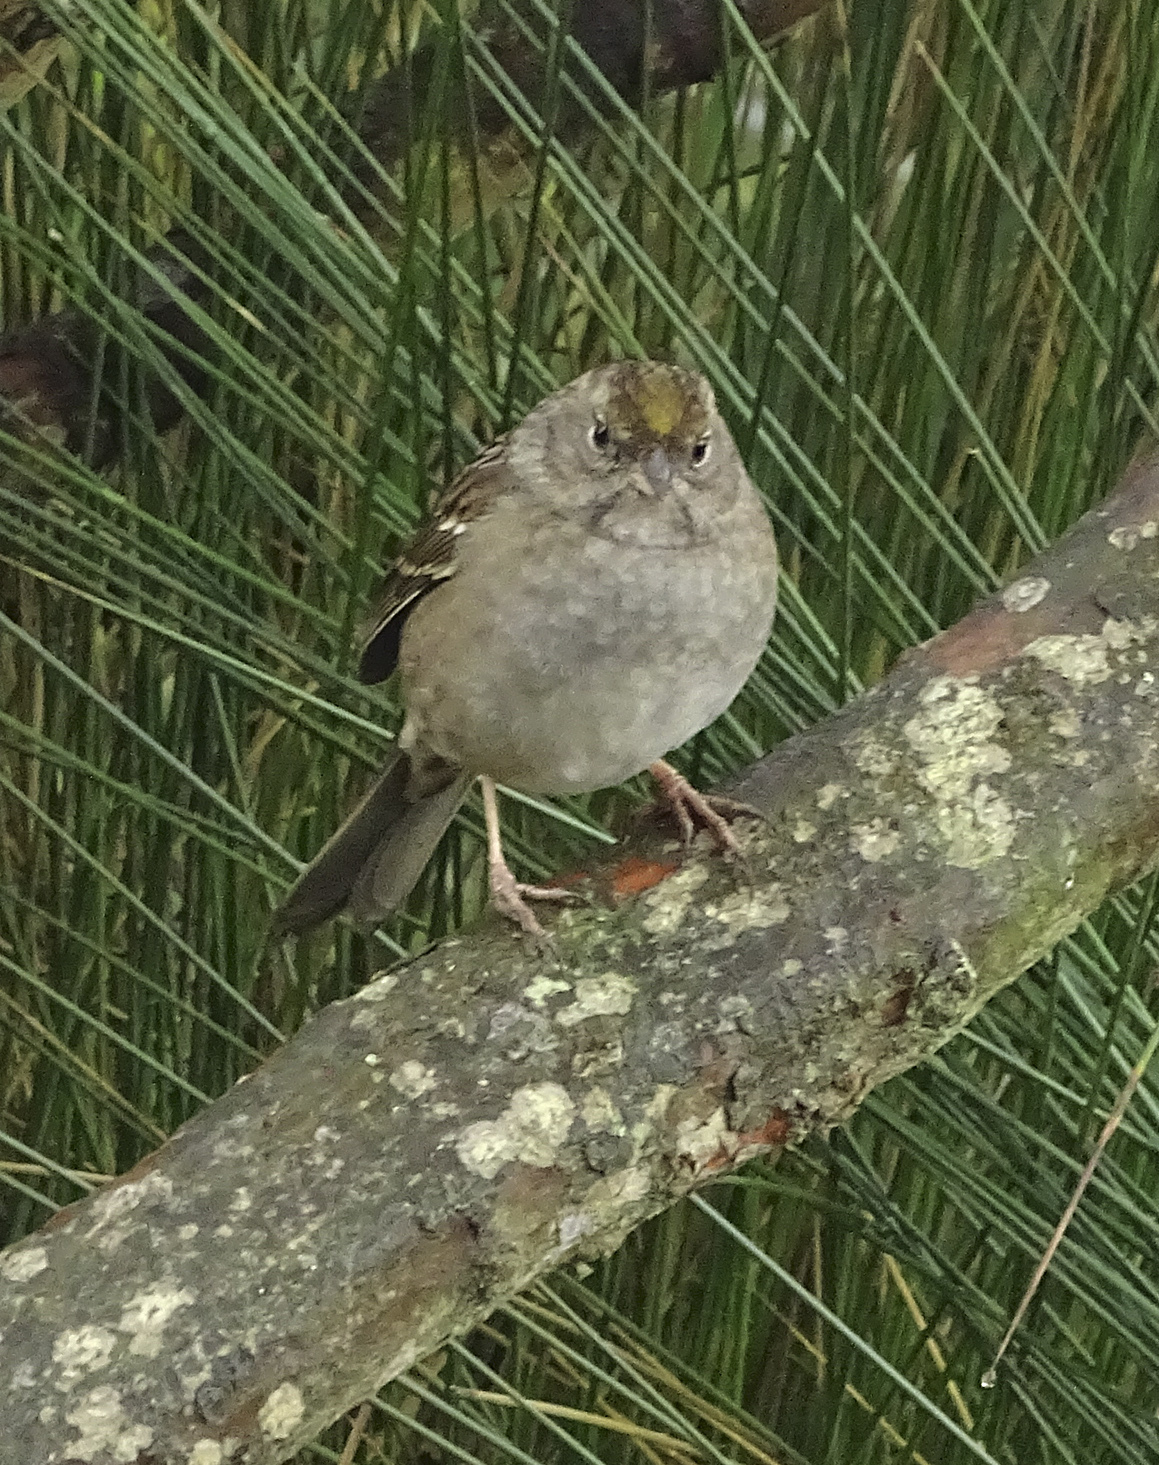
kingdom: Animalia
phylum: Chordata
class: Aves
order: Passeriformes
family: Passerellidae
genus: Zonotrichia
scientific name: Zonotrichia atricapilla
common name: Golden-crowned sparrow
